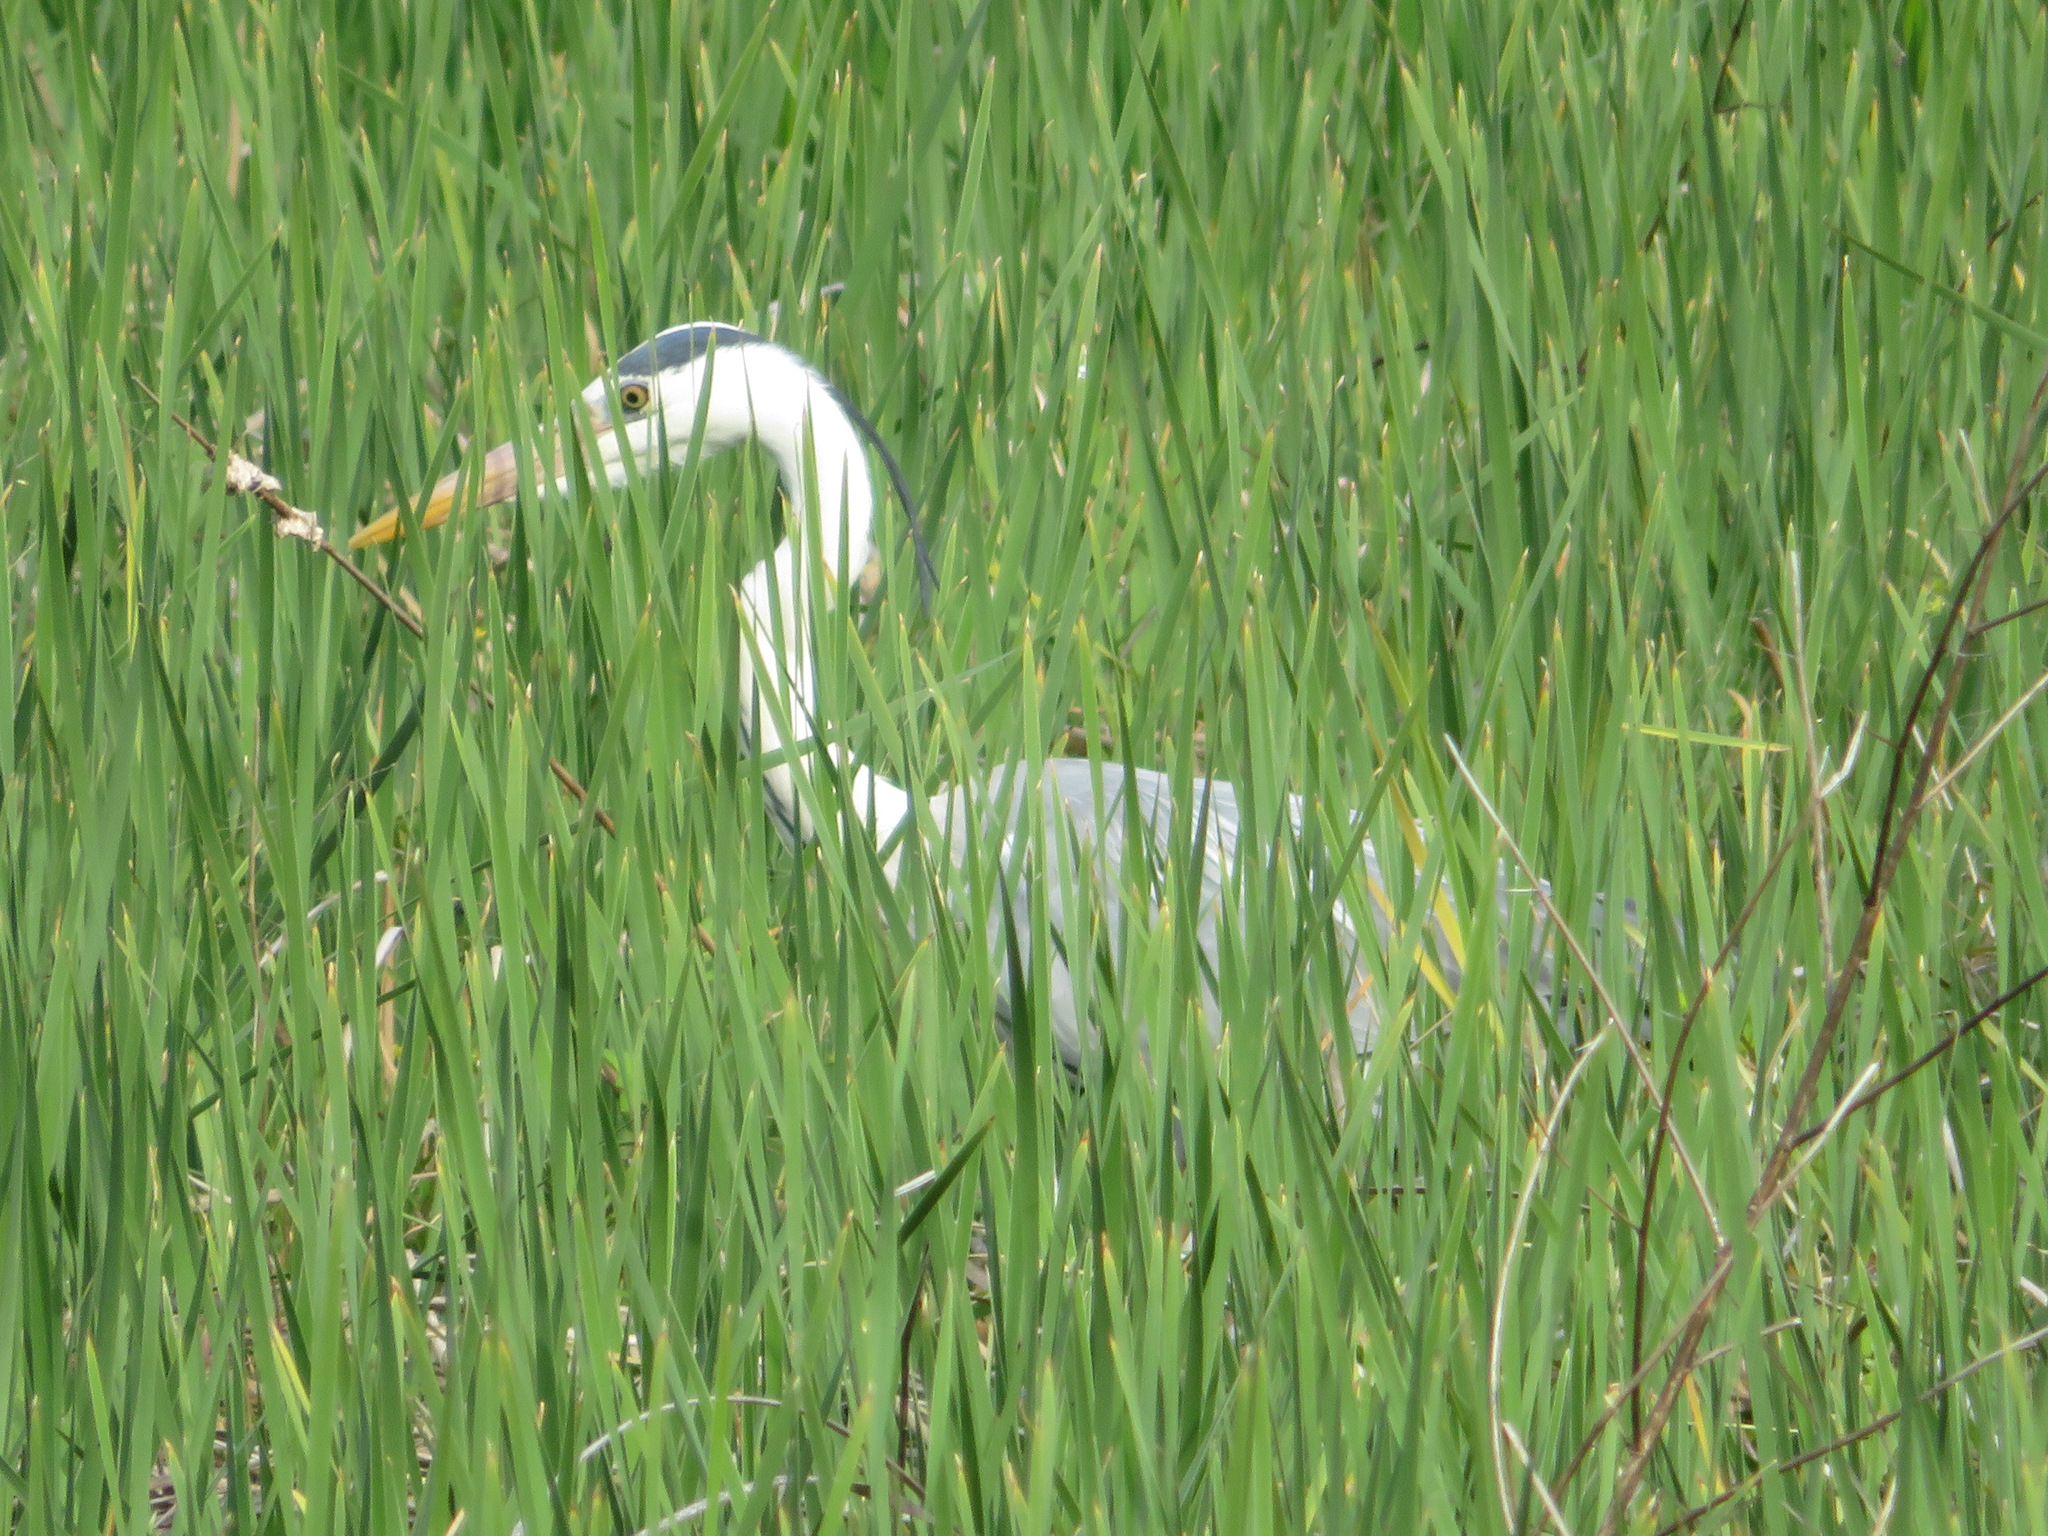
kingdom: Animalia
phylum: Chordata
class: Aves
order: Pelecaniformes
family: Ardeidae
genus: Ardea
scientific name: Ardea cinerea
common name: Grey heron
